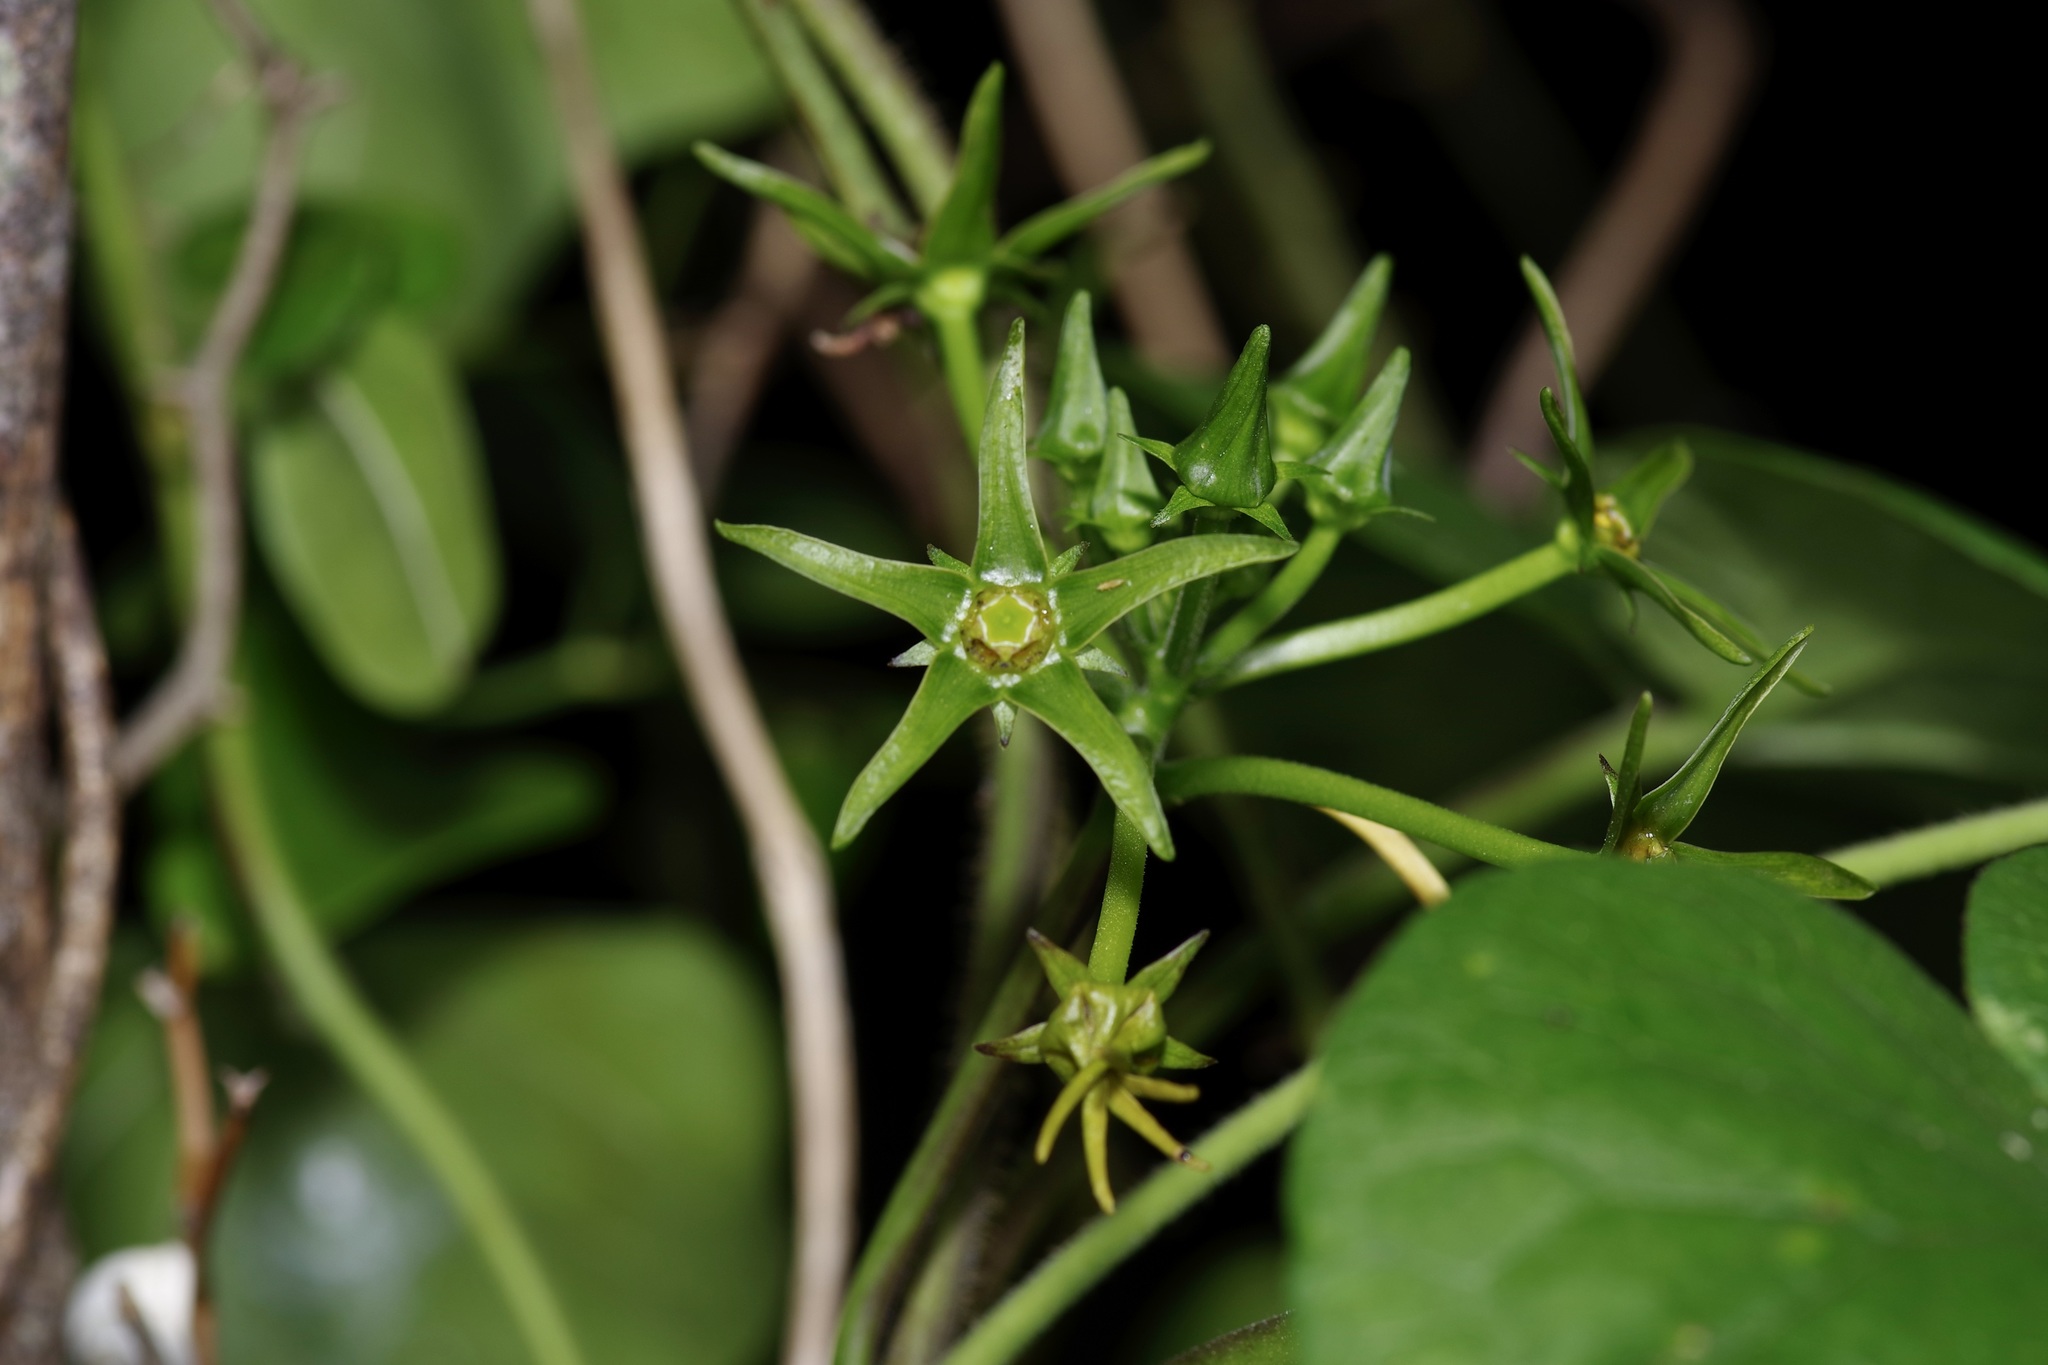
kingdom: Plantae
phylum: Tracheophyta
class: Magnoliopsida
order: Gentianales
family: Apocynaceae
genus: Gonolobus
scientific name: Gonolobus suberosus
